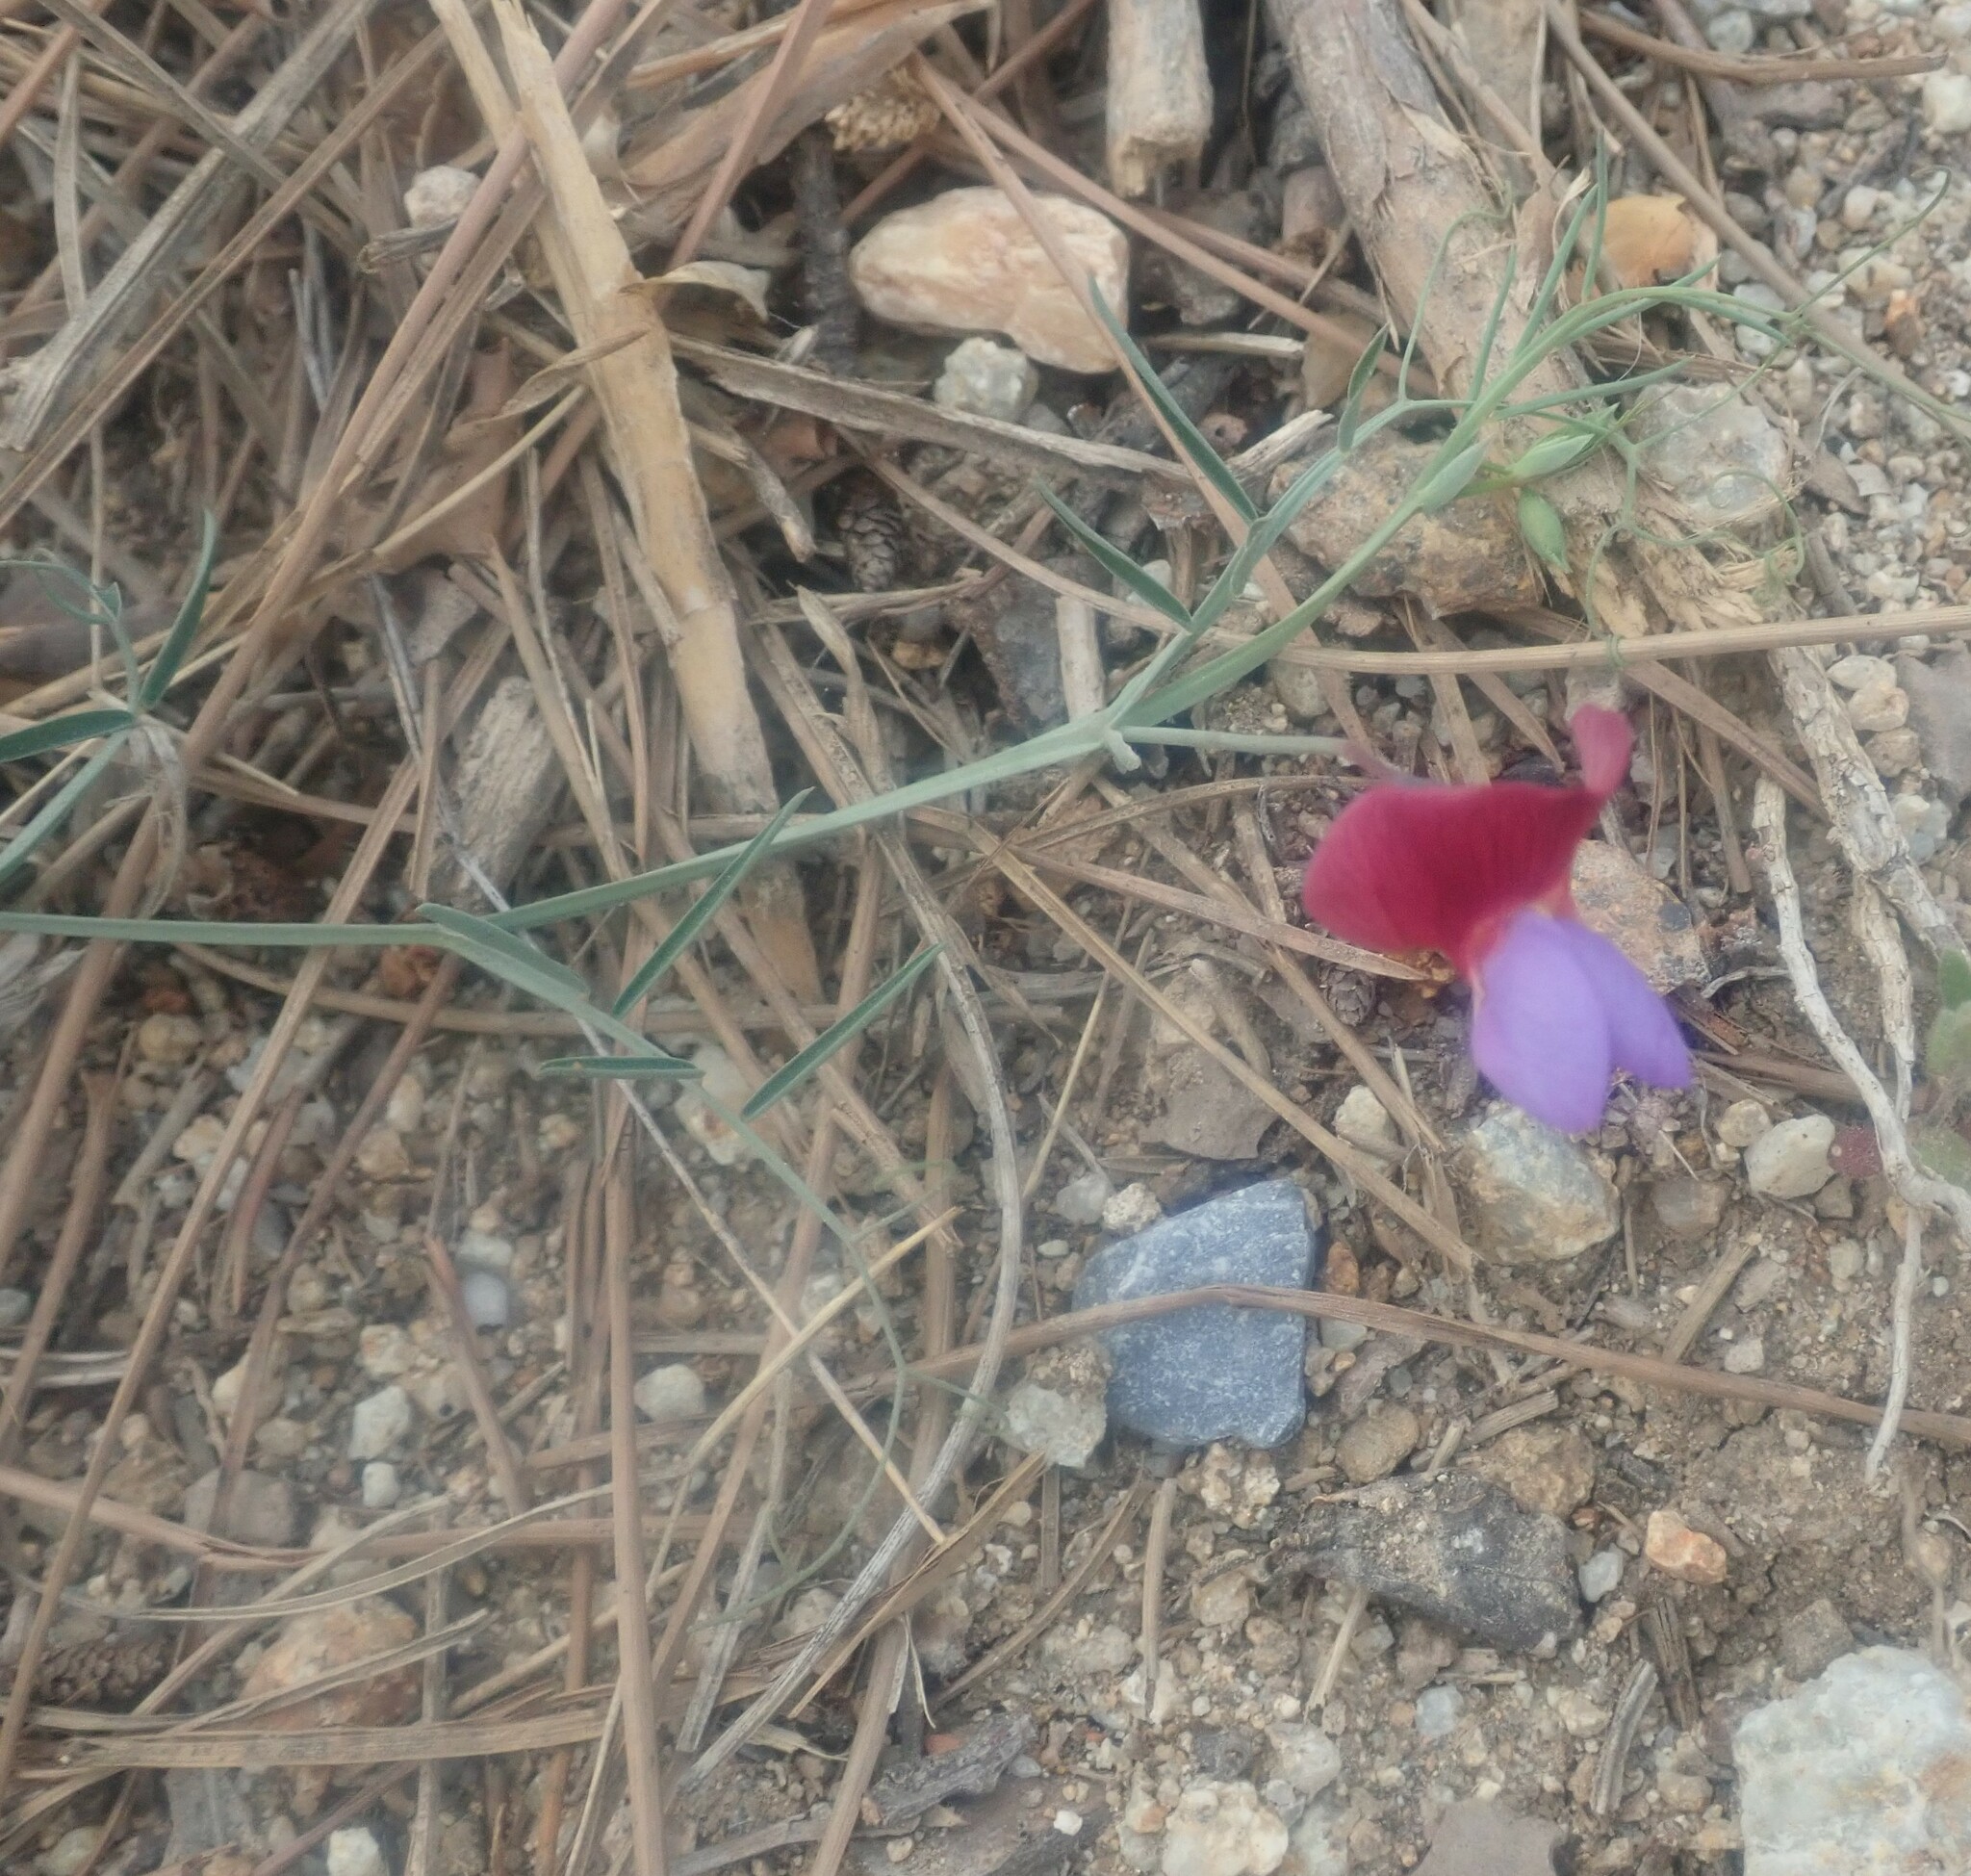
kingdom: Plantae
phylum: Tracheophyta
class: Magnoliopsida
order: Fabales
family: Fabaceae
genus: Lathyrus
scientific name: Lathyrus clymenum
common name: Spanish vetchling
